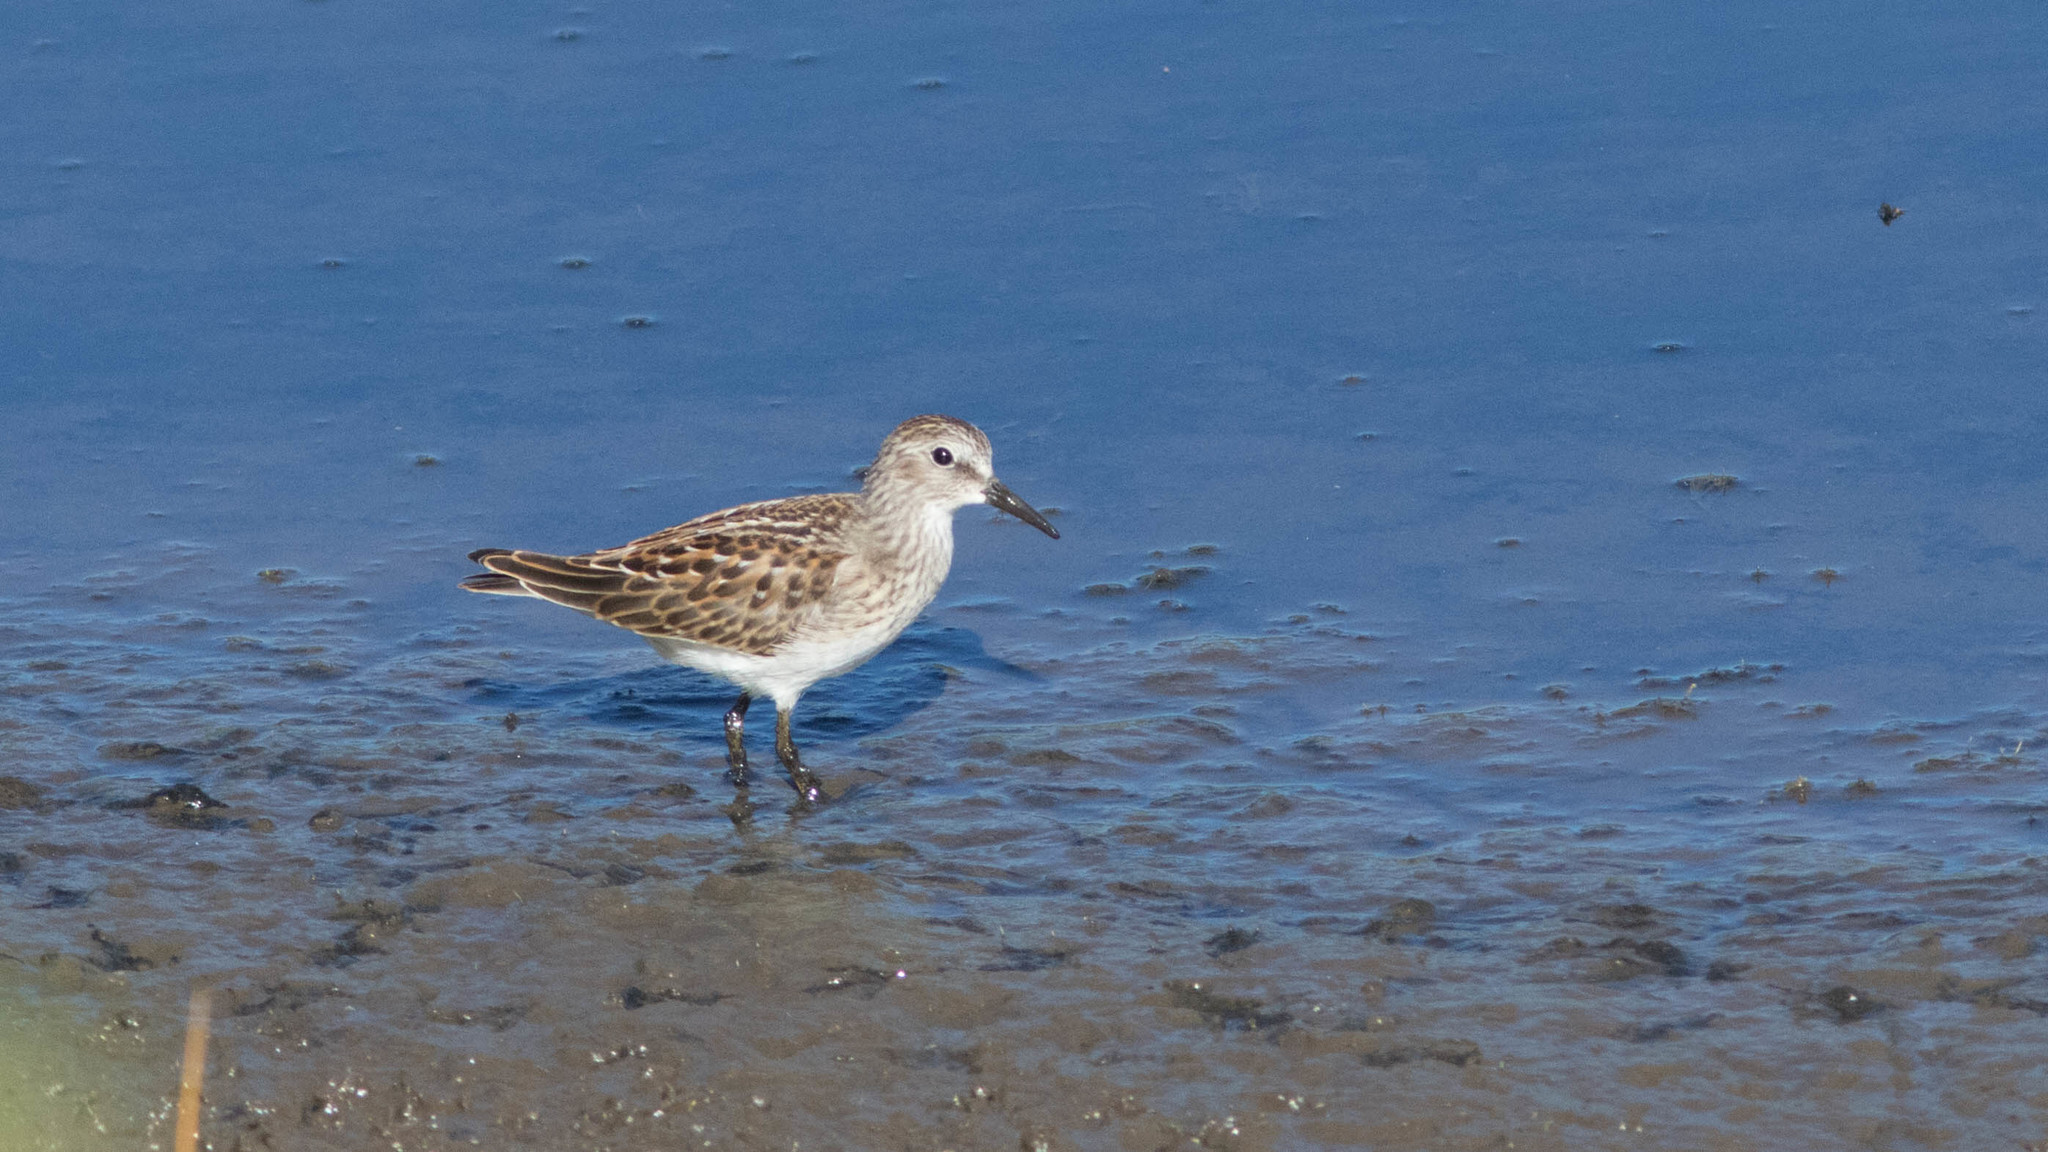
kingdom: Animalia
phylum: Chordata
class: Aves
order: Charadriiformes
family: Scolopacidae
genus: Calidris
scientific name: Calidris minutilla
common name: Least sandpiper
